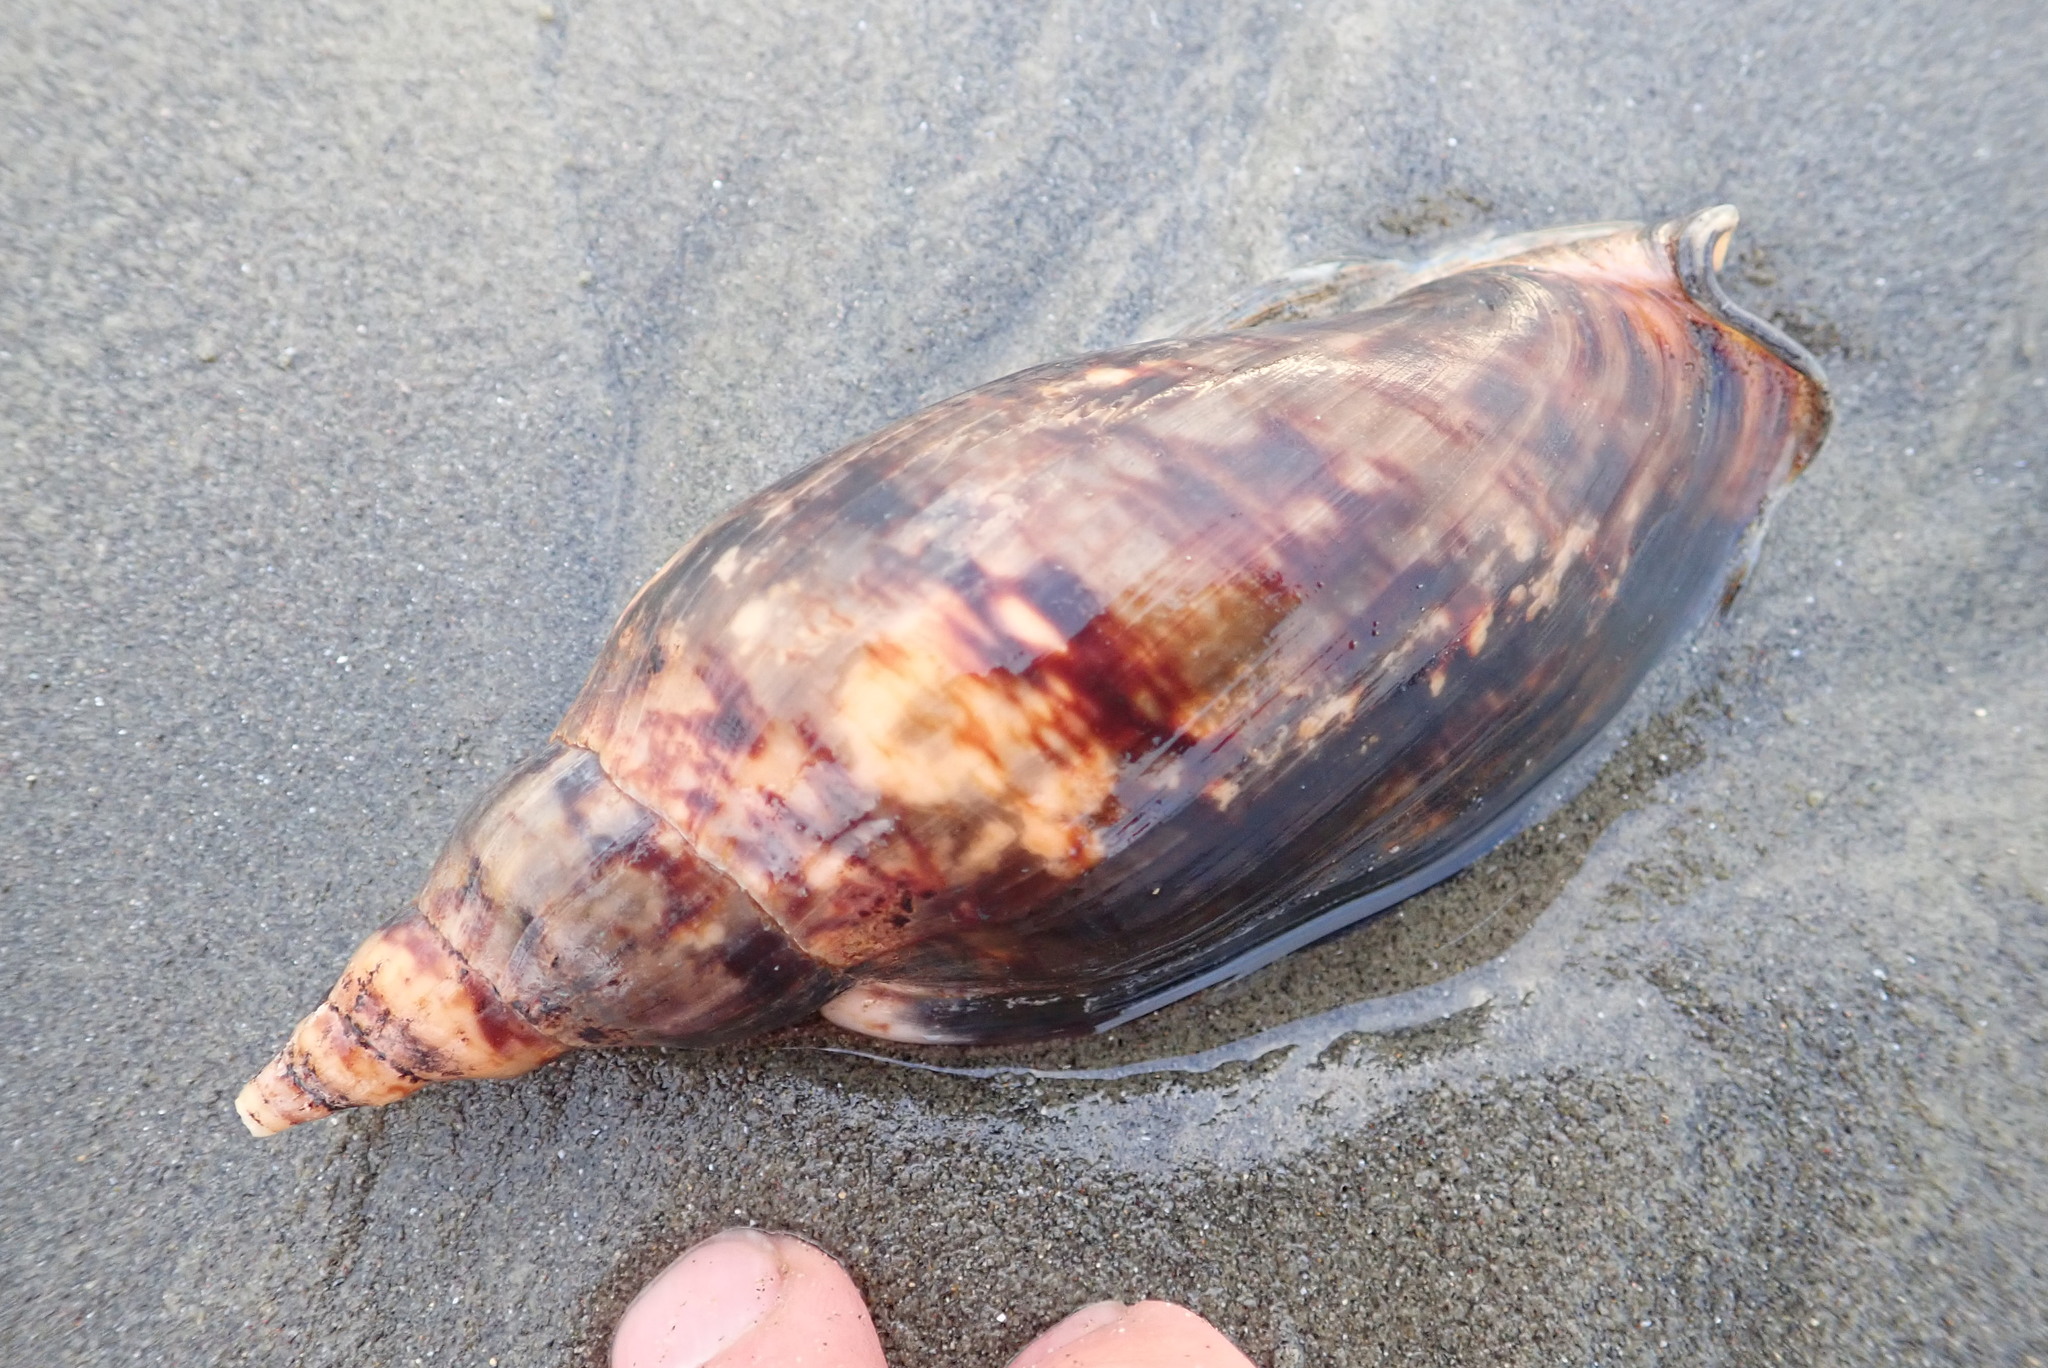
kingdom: Animalia
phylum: Mollusca
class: Gastropoda
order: Neogastropoda
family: Volutidae
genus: Alcithoe
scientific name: Alcithoe arabica
